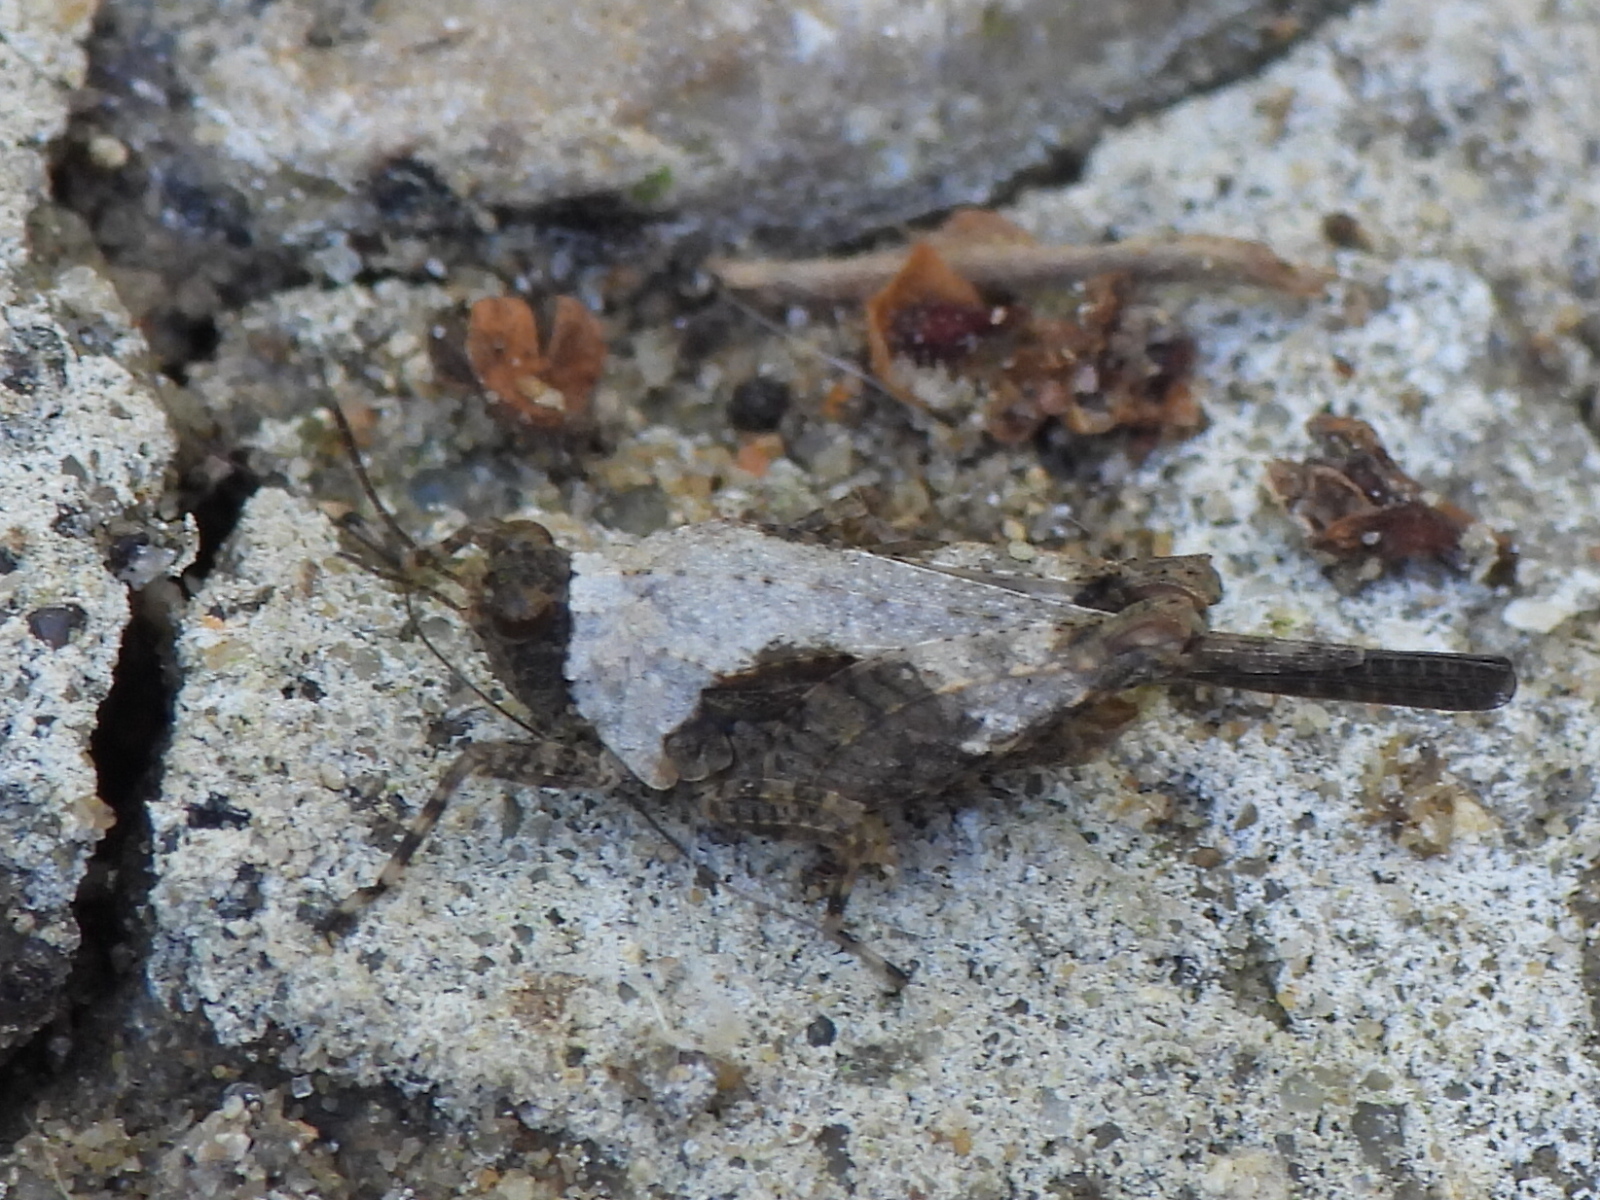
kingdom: Animalia
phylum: Arthropoda
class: Insecta
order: Orthoptera
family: Tetrigidae
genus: Paratettix
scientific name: Paratettix mexicanus
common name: Mexican pygmy grasshopper
